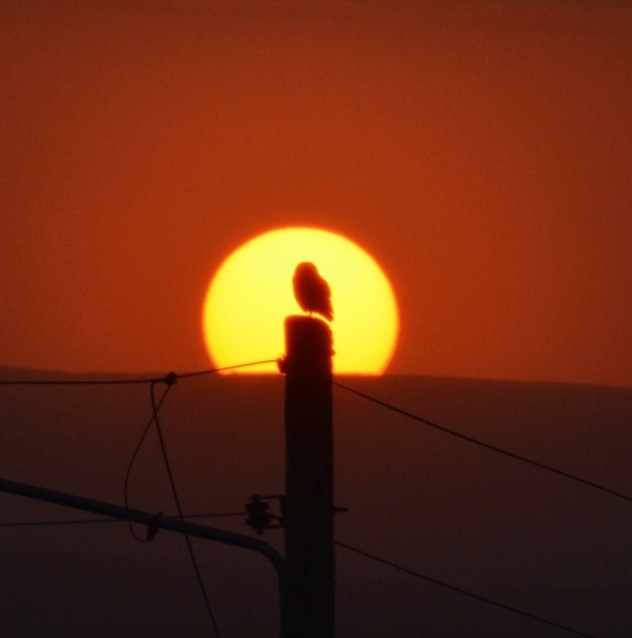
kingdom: Animalia
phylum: Chordata
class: Aves
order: Strigiformes
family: Strigidae
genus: Athene
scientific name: Athene cunicularia
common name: Burrowing owl
